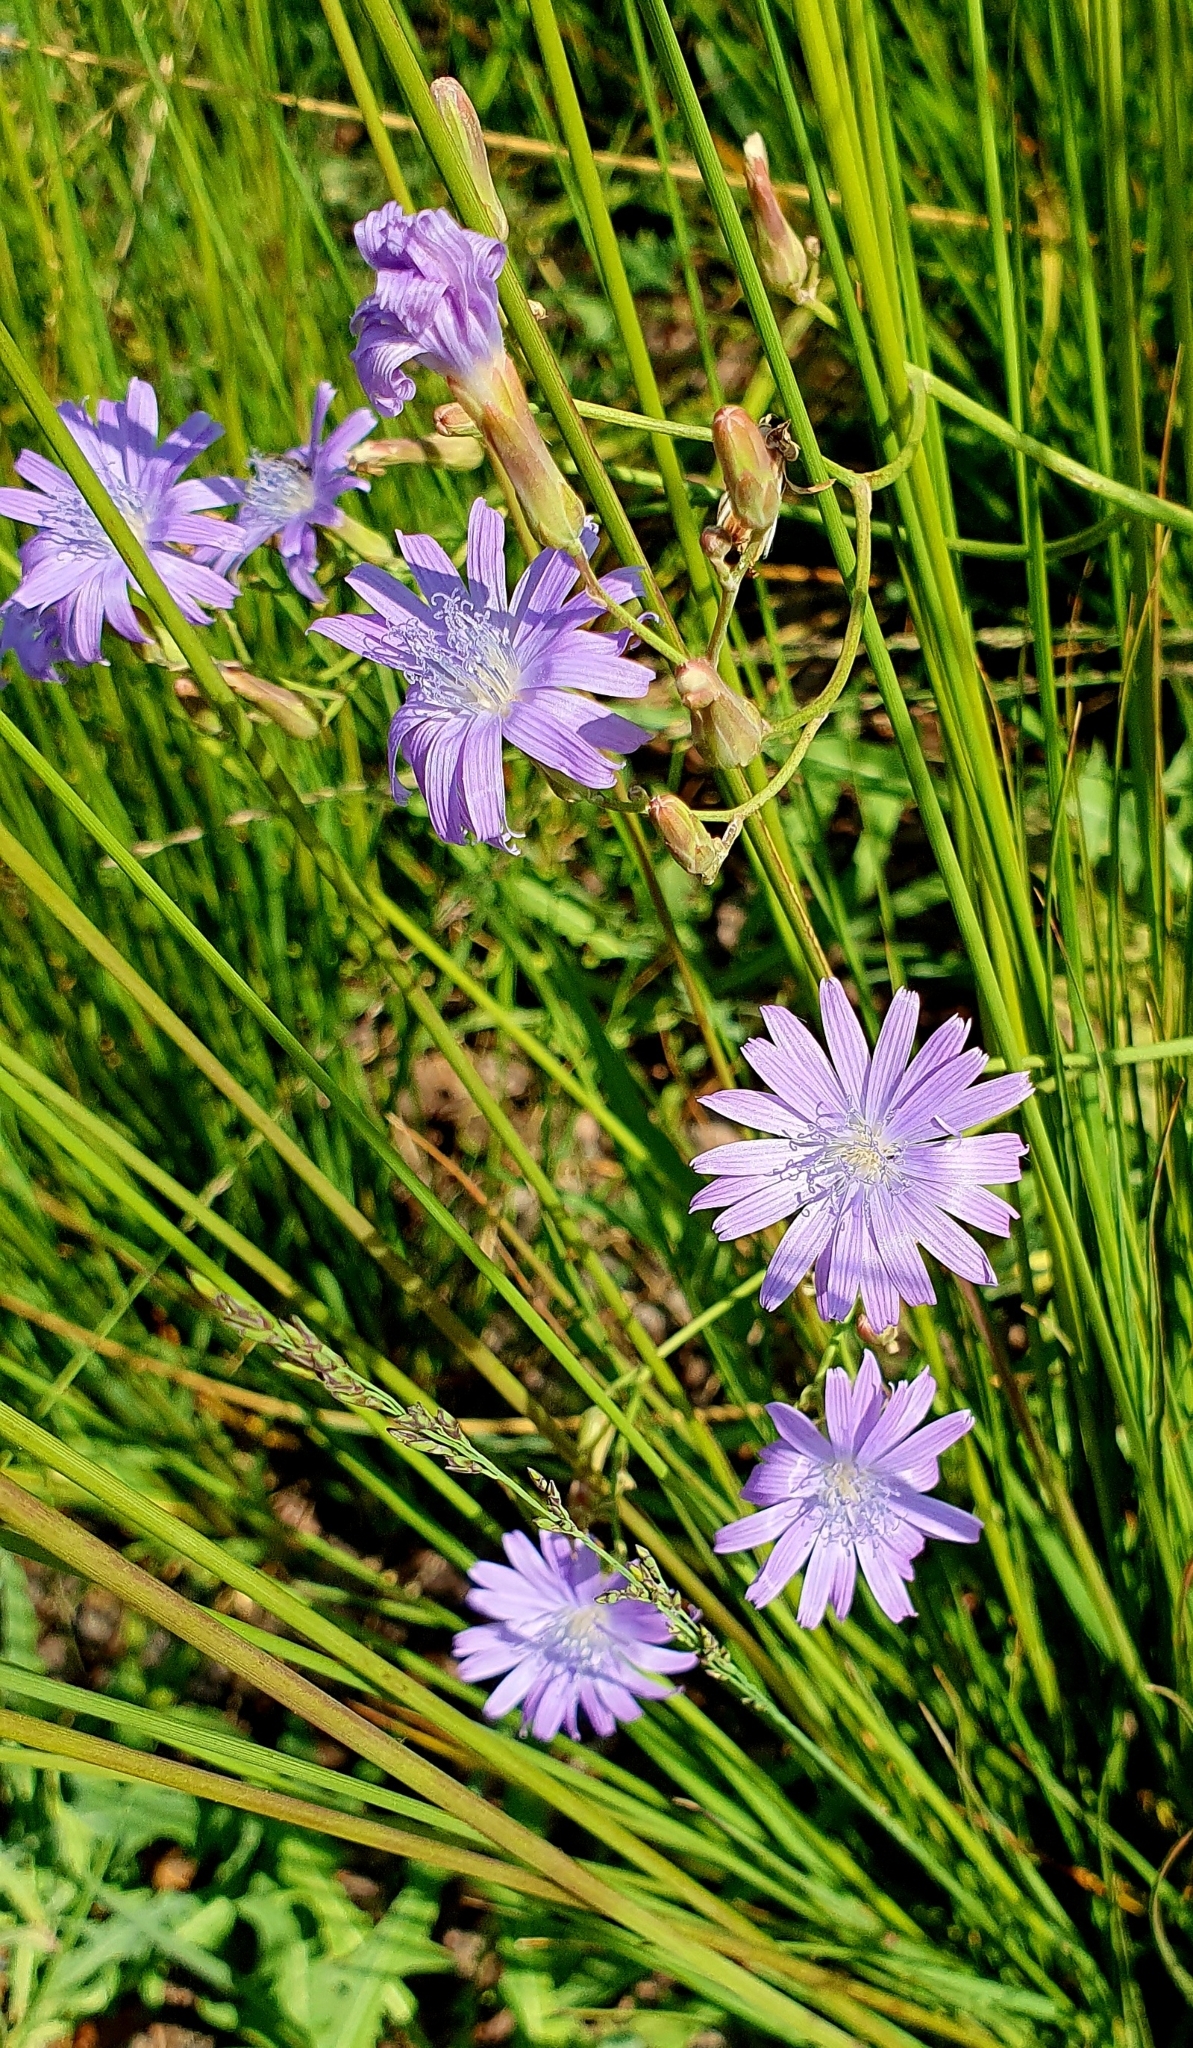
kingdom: Plantae
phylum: Tracheophyta
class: Magnoliopsida
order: Asterales
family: Asteraceae
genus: Lactuca
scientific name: Lactuca tatarica
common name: Blue lettuce
